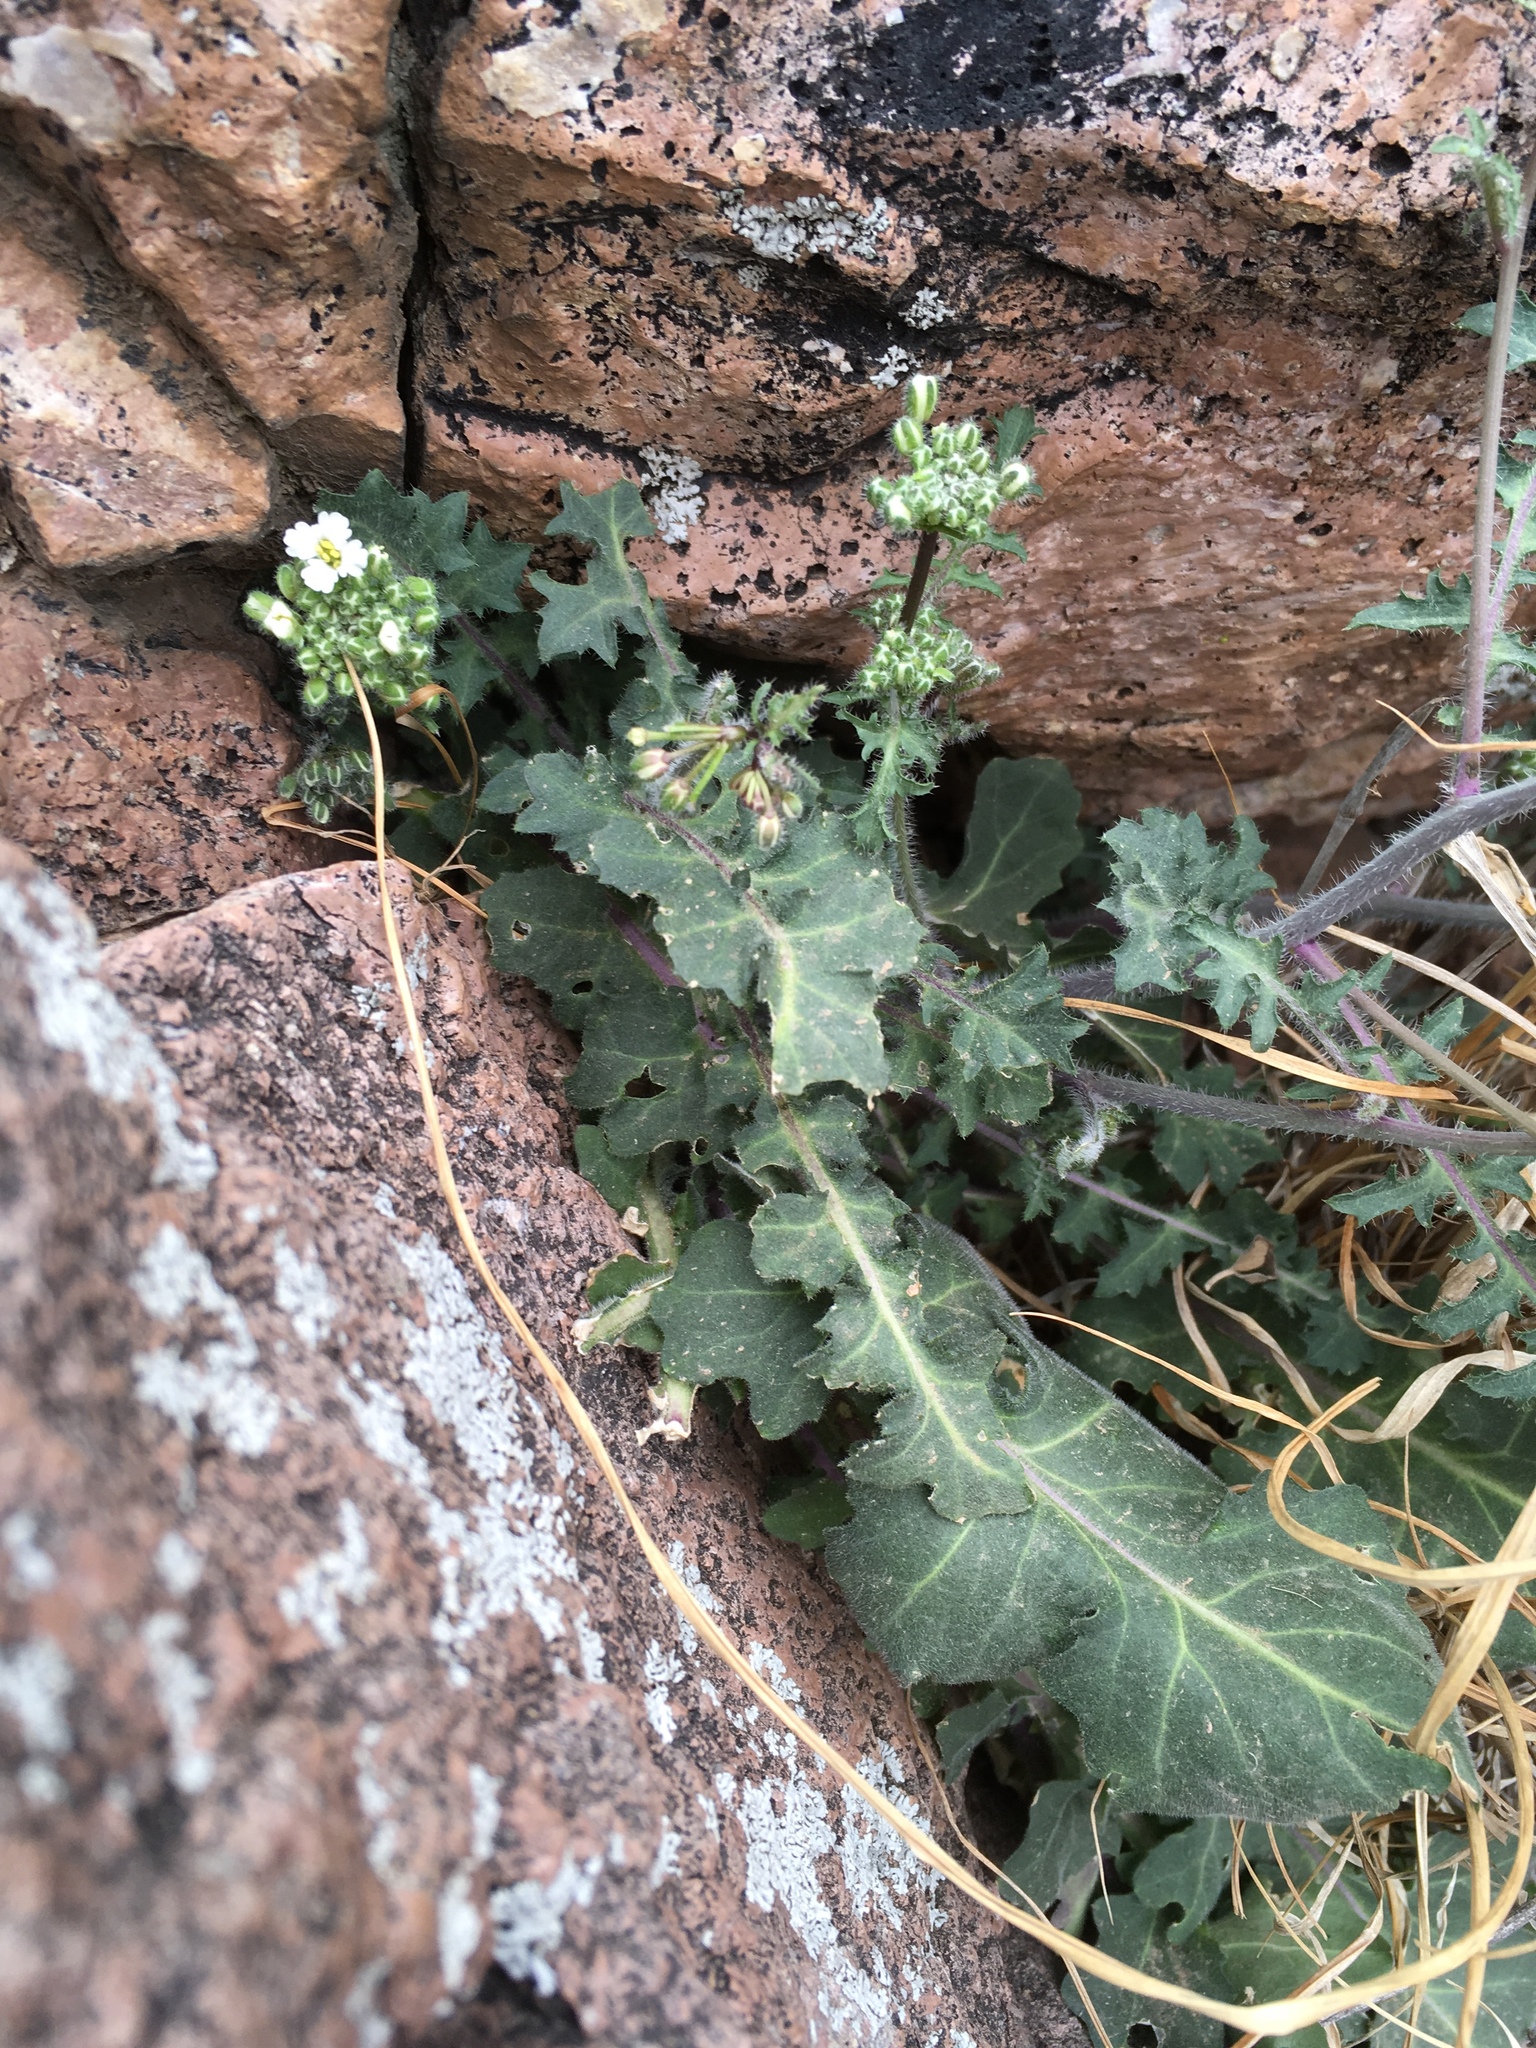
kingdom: Plantae
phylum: Tracheophyta
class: Magnoliopsida
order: Brassicales
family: Brassicaceae
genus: Dryopetalon
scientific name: Dryopetalon runcinatum
